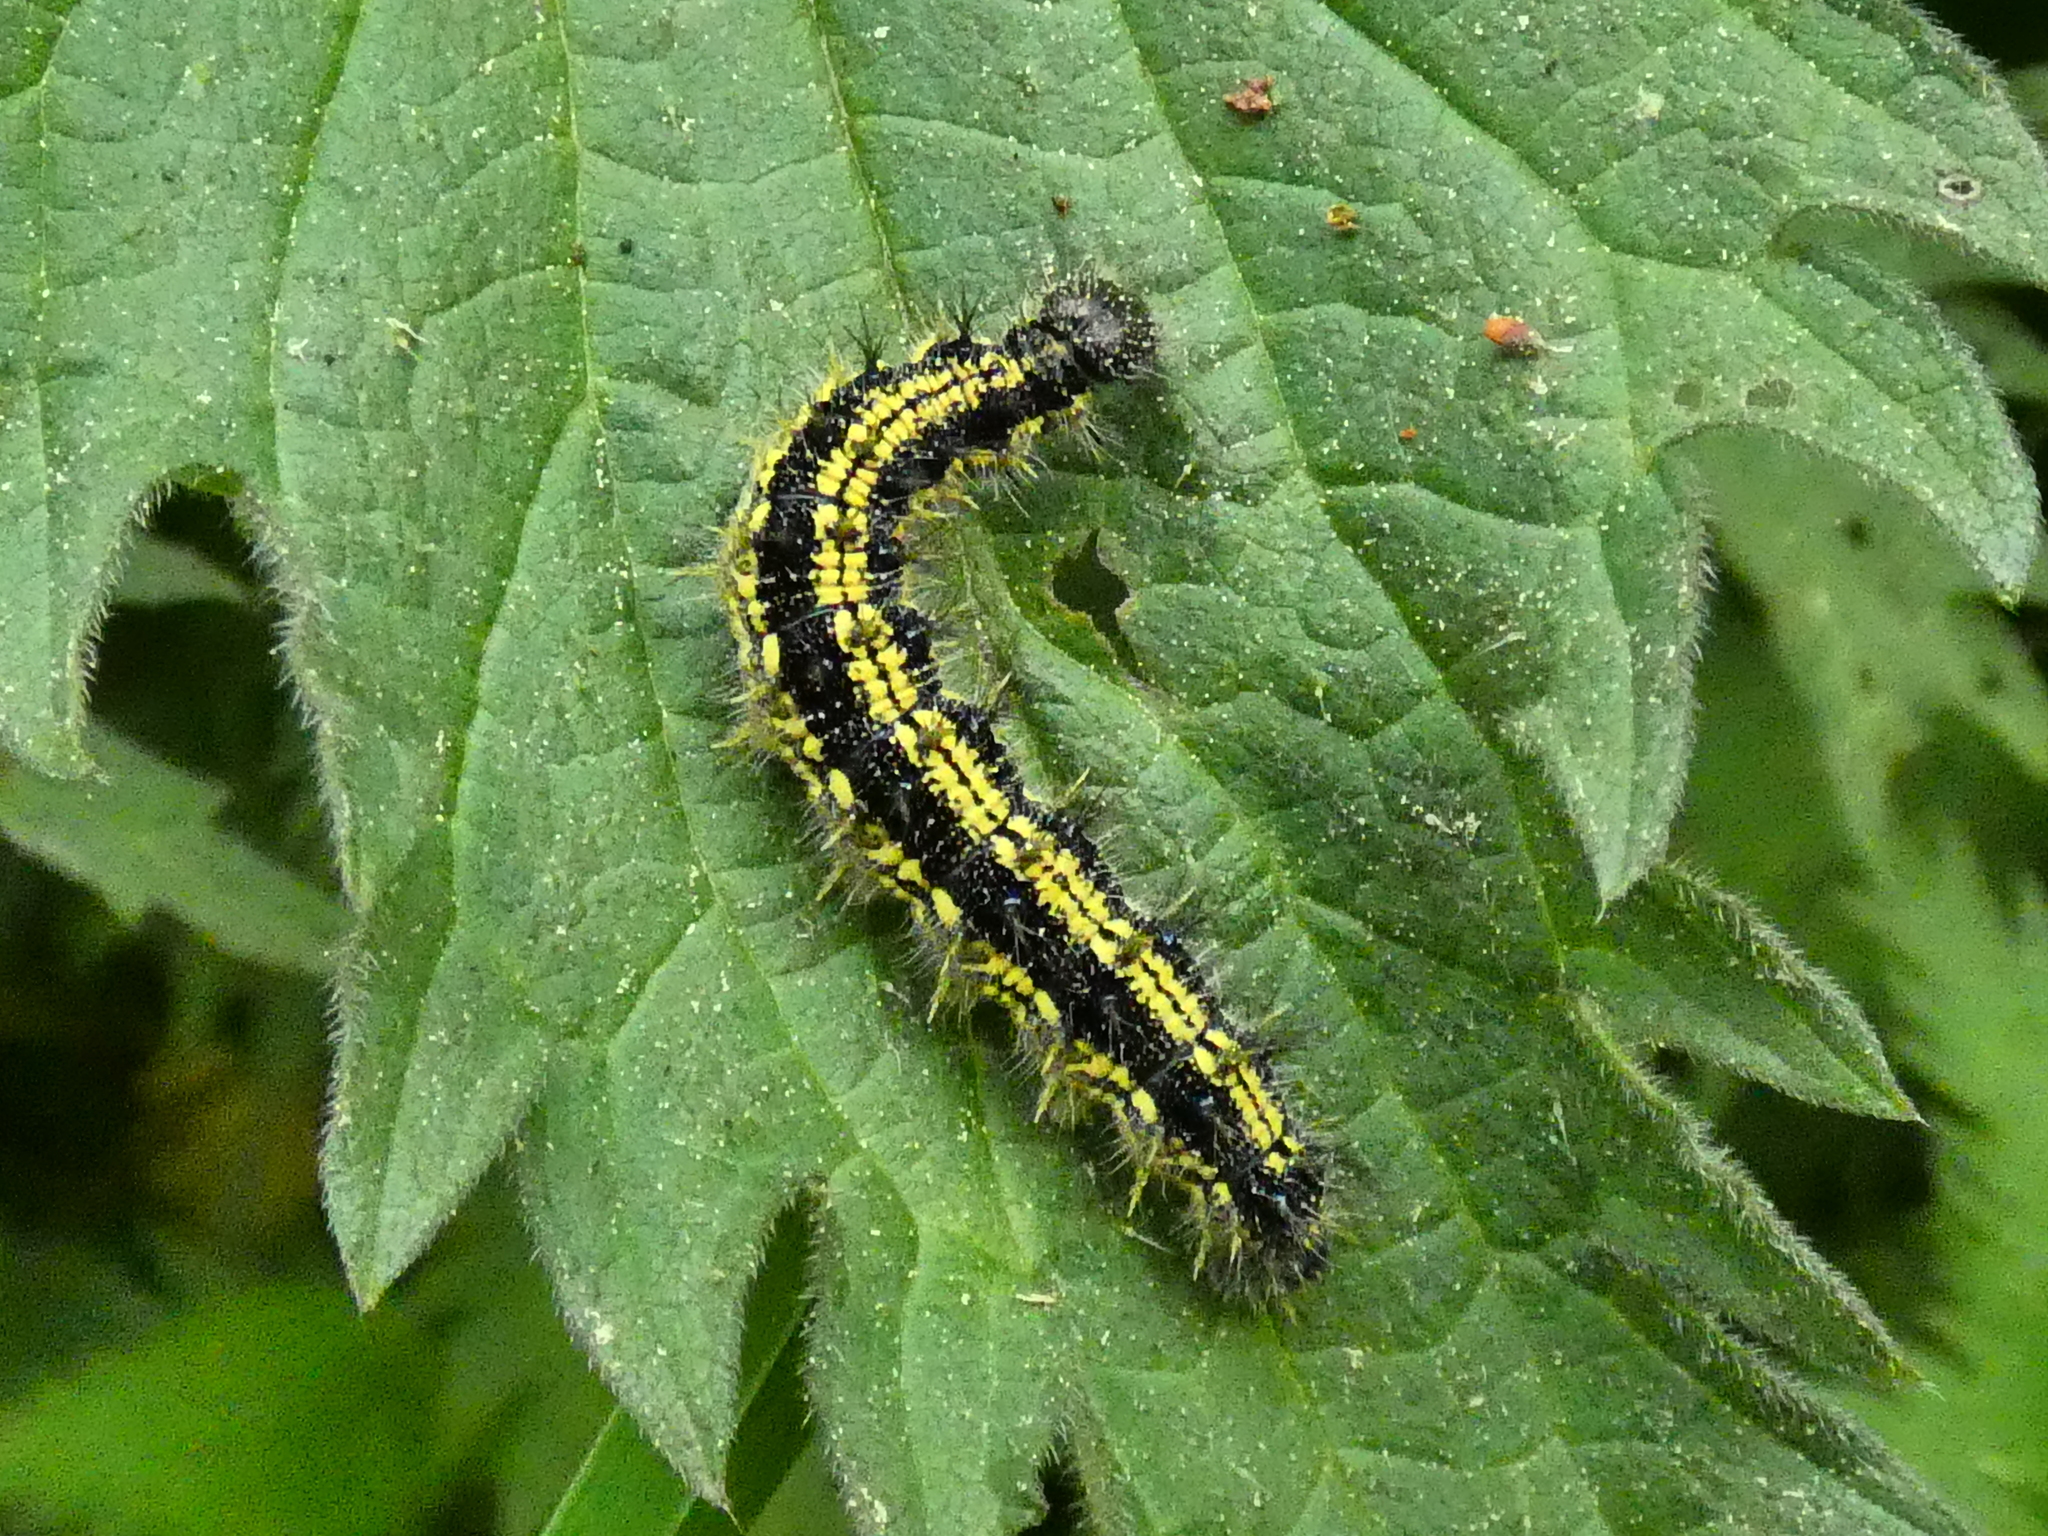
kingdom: Animalia
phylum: Arthropoda
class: Insecta
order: Lepidoptera
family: Nymphalidae
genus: Aglais
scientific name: Aglais urticae
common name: Small tortoiseshell
